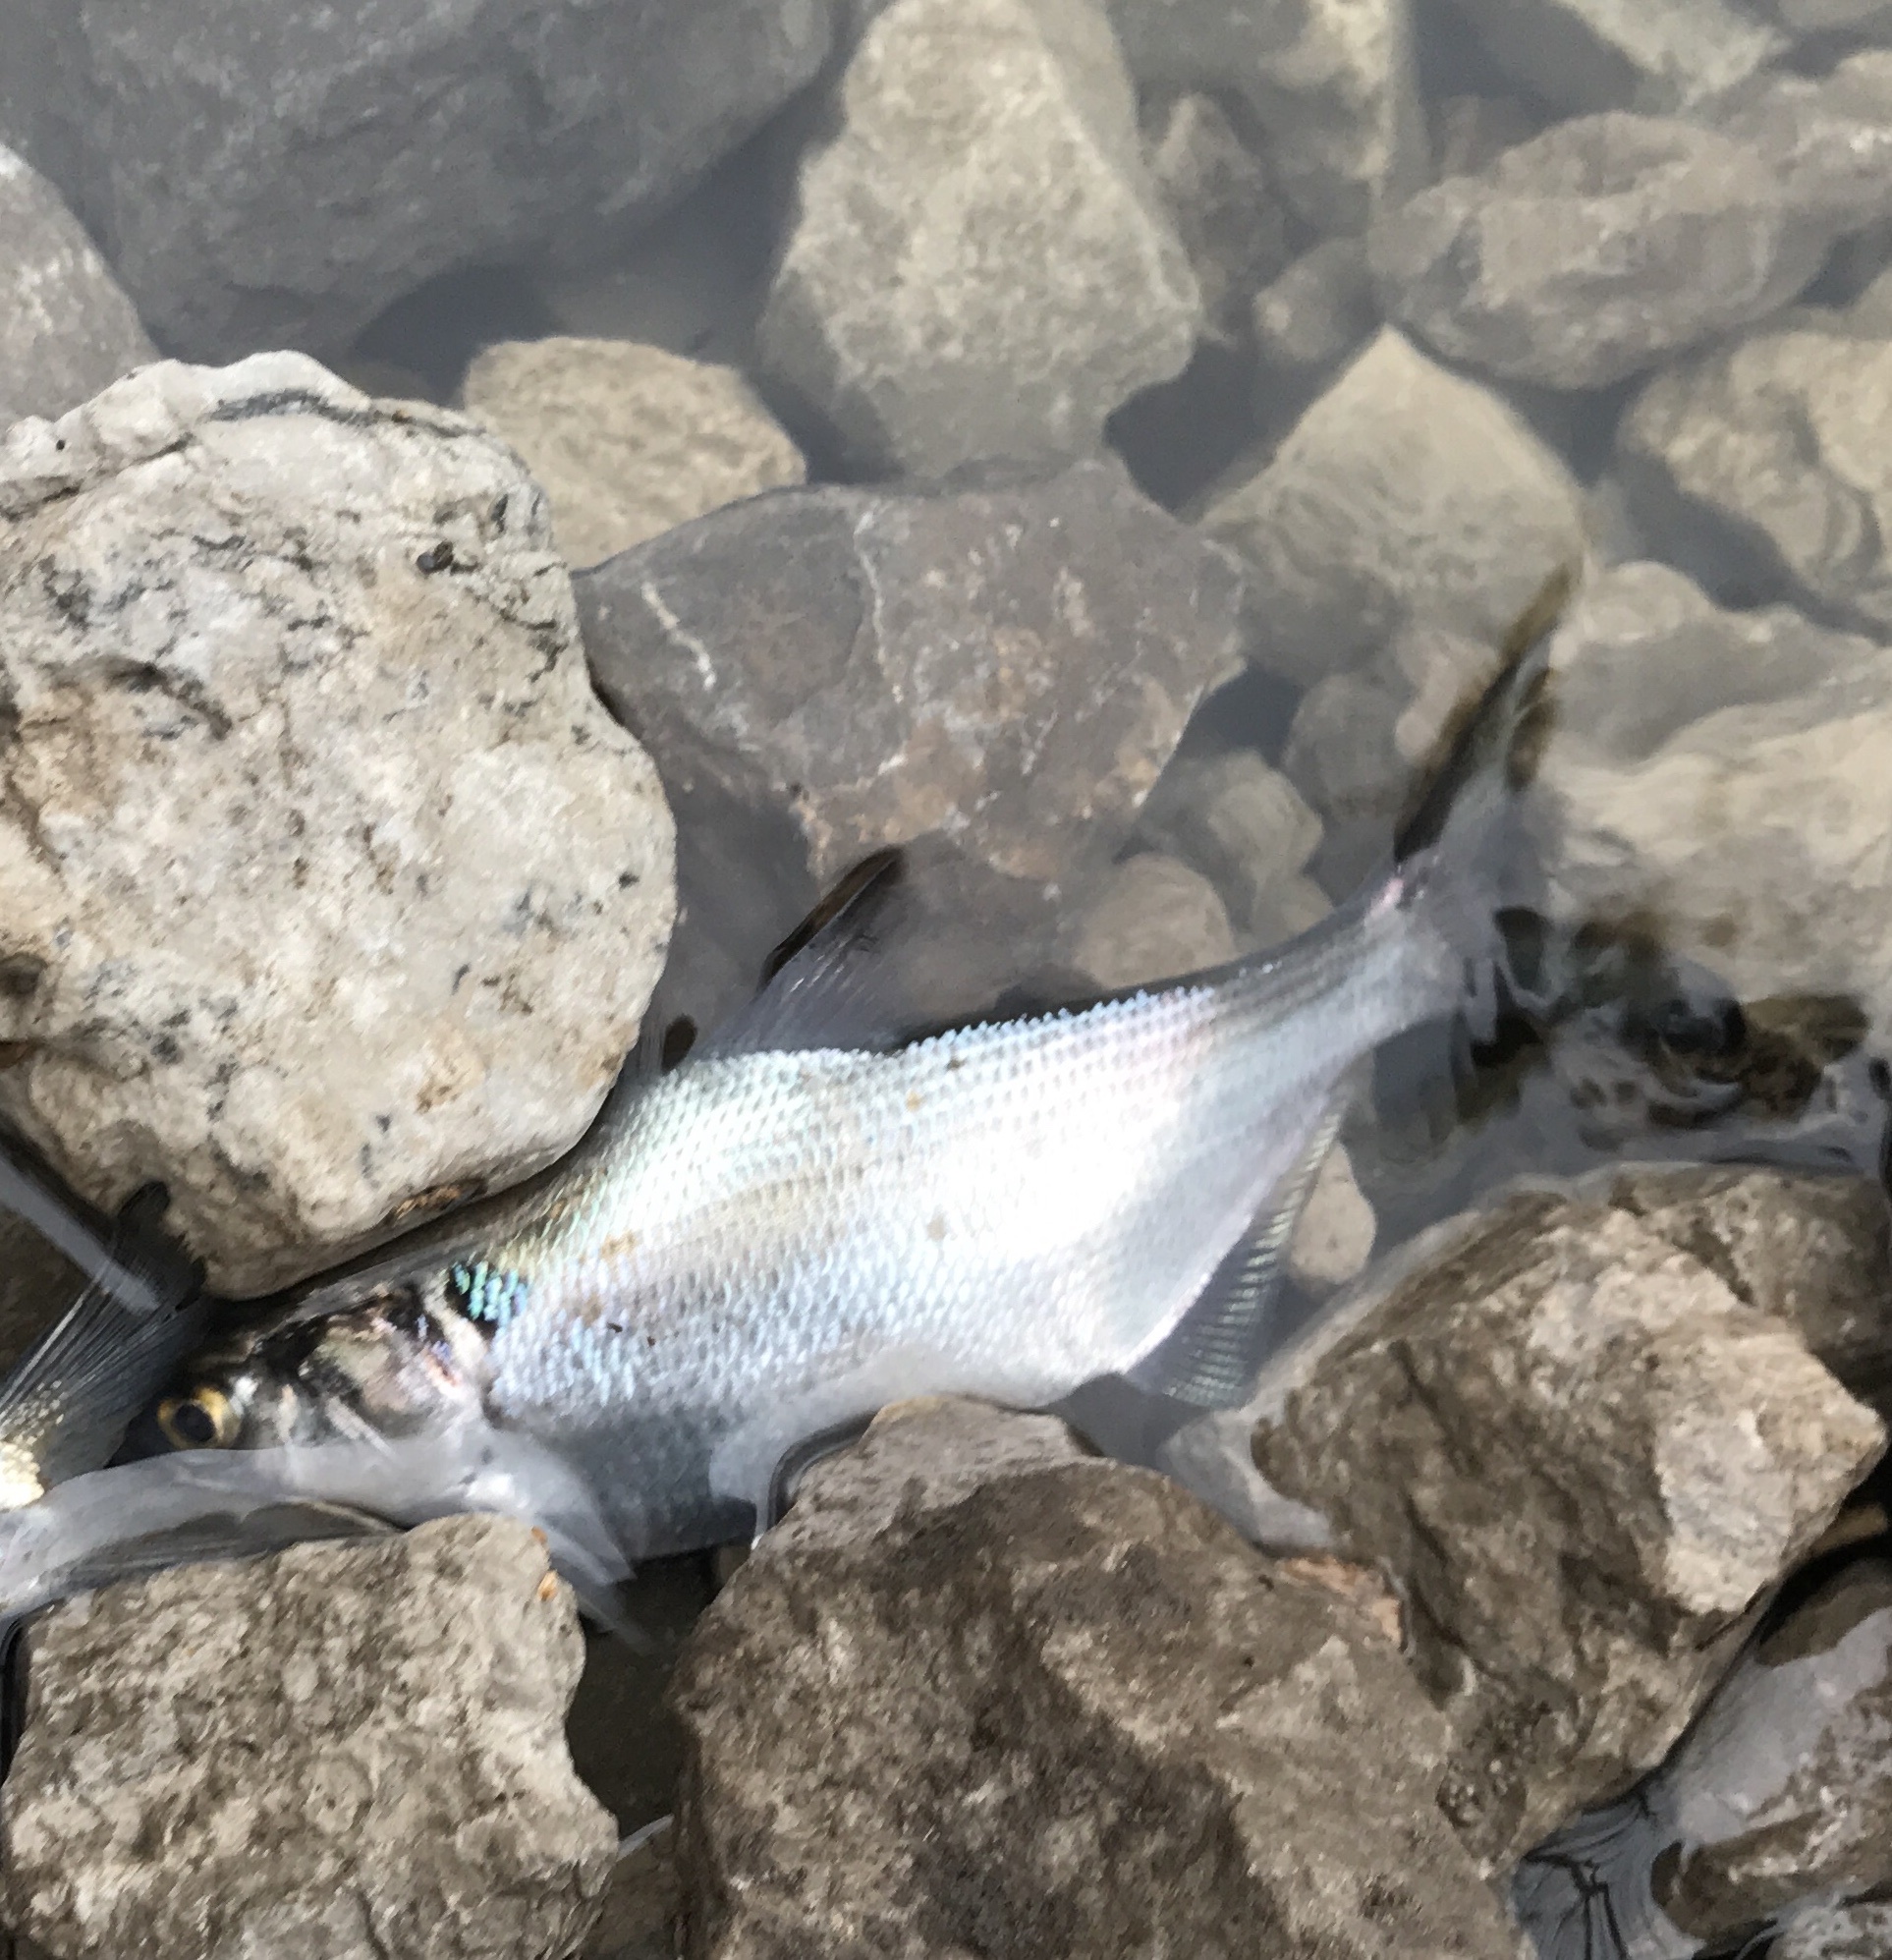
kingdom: Animalia
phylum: Chordata
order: Clupeiformes
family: Clupeidae
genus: Dorosoma
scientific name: Dorosoma cepedianum
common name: Gizzard shad
